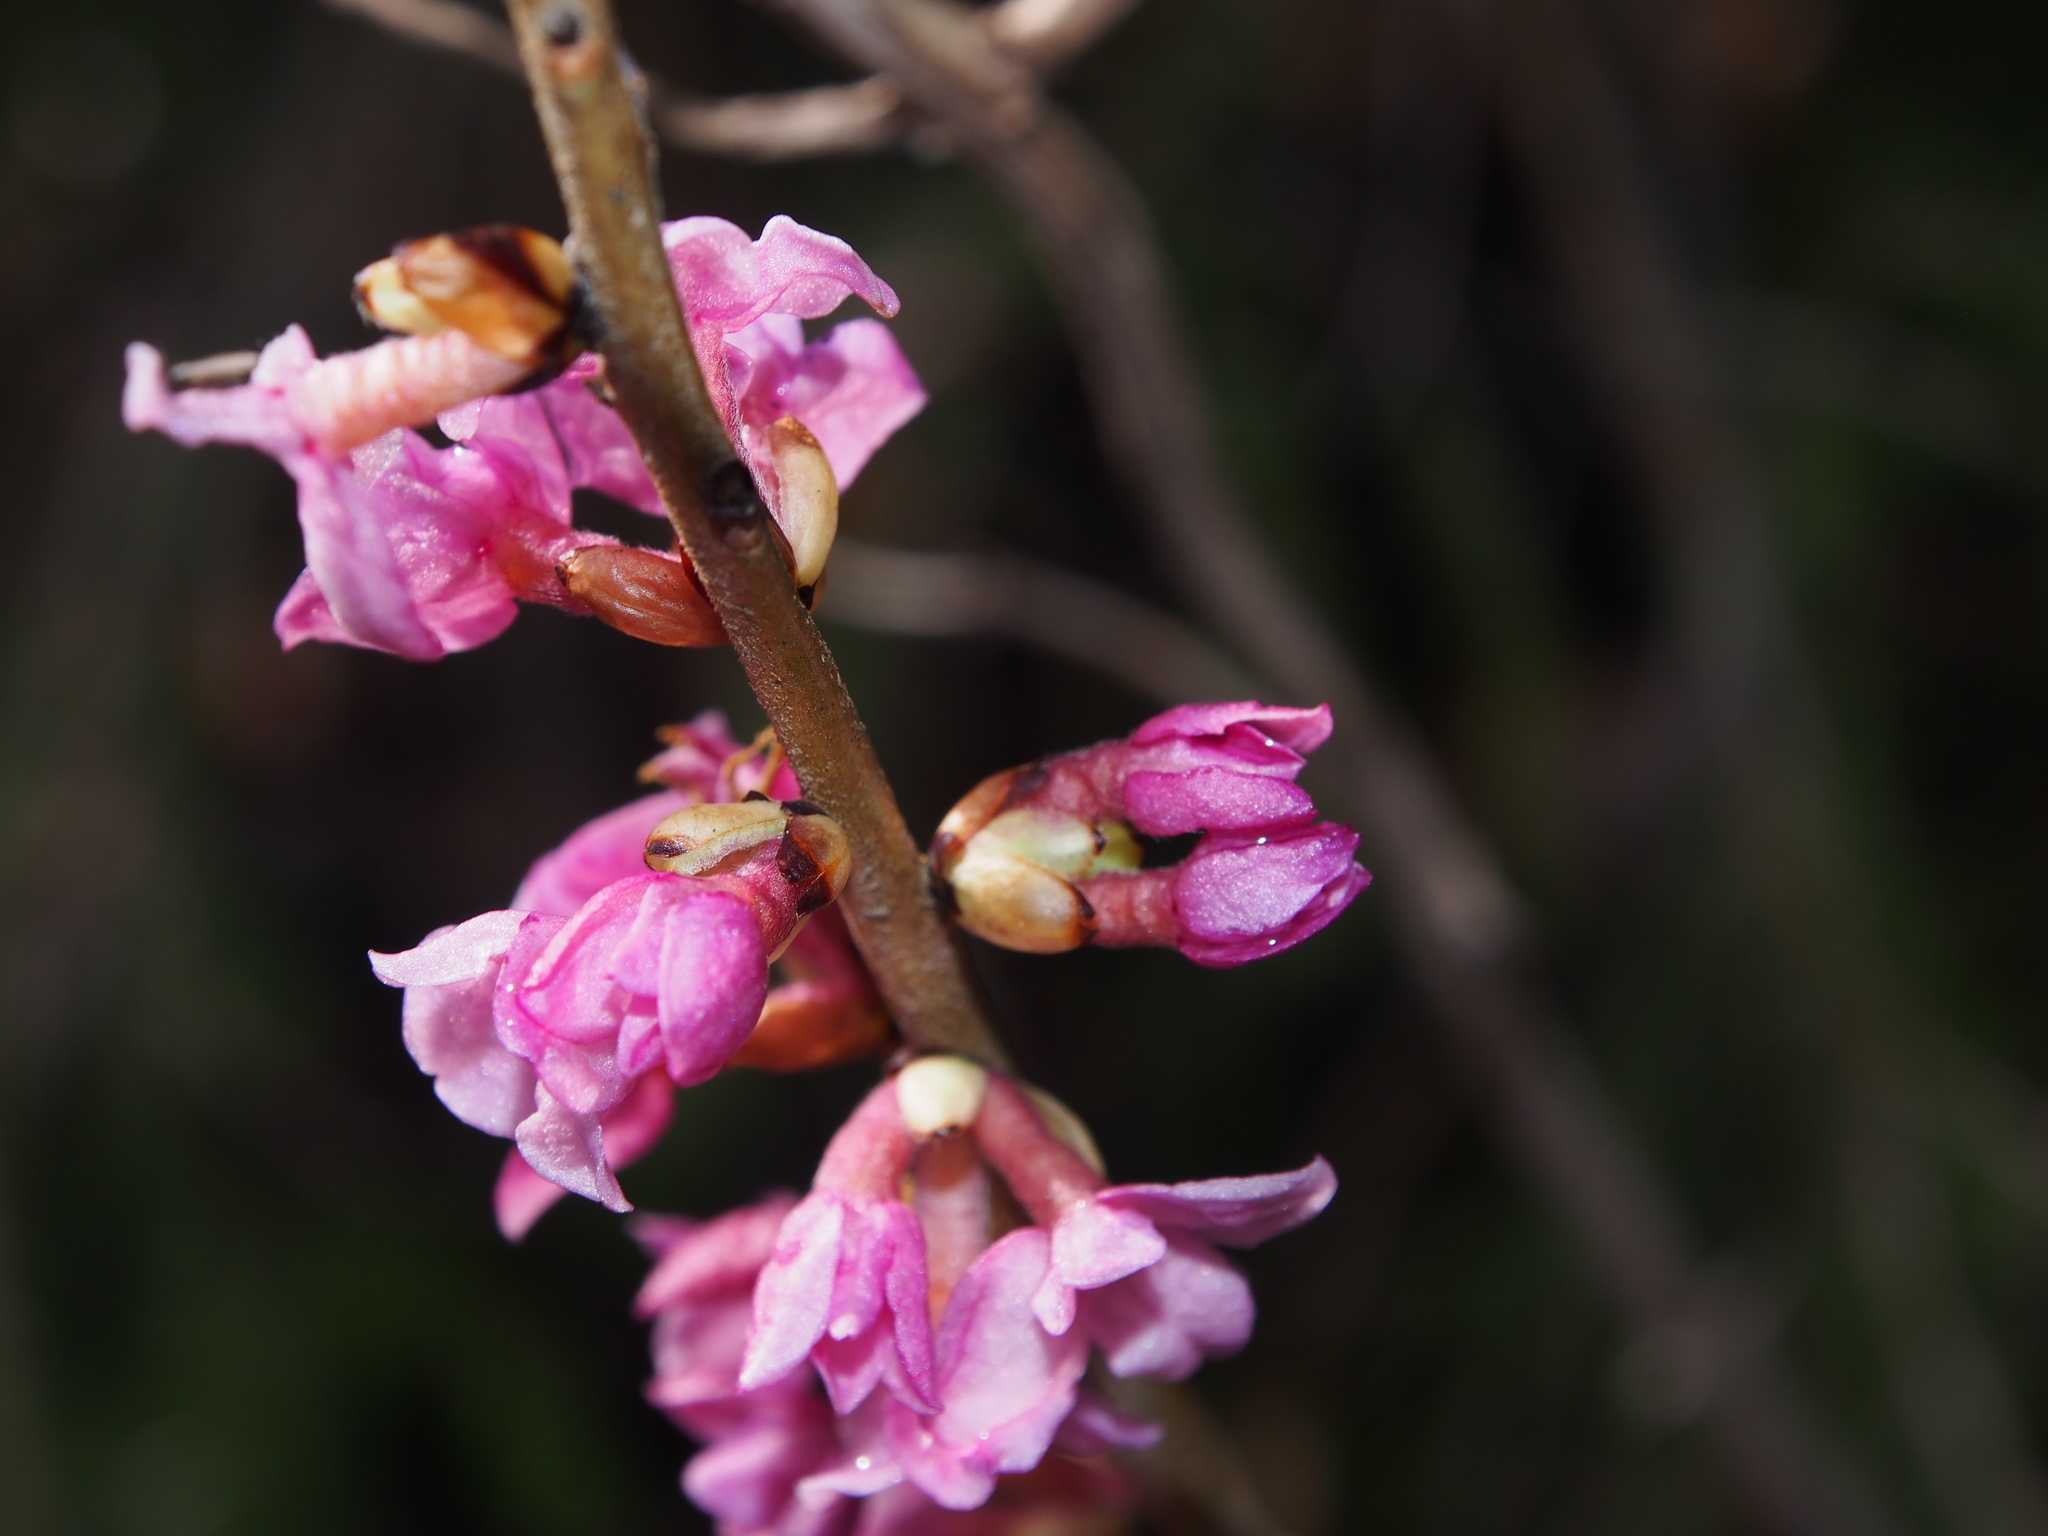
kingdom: Plantae
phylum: Tracheophyta
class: Magnoliopsida
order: Malvales
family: Thymelaeaceae
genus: Daphne
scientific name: Daphne mezereum
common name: Mezereon
